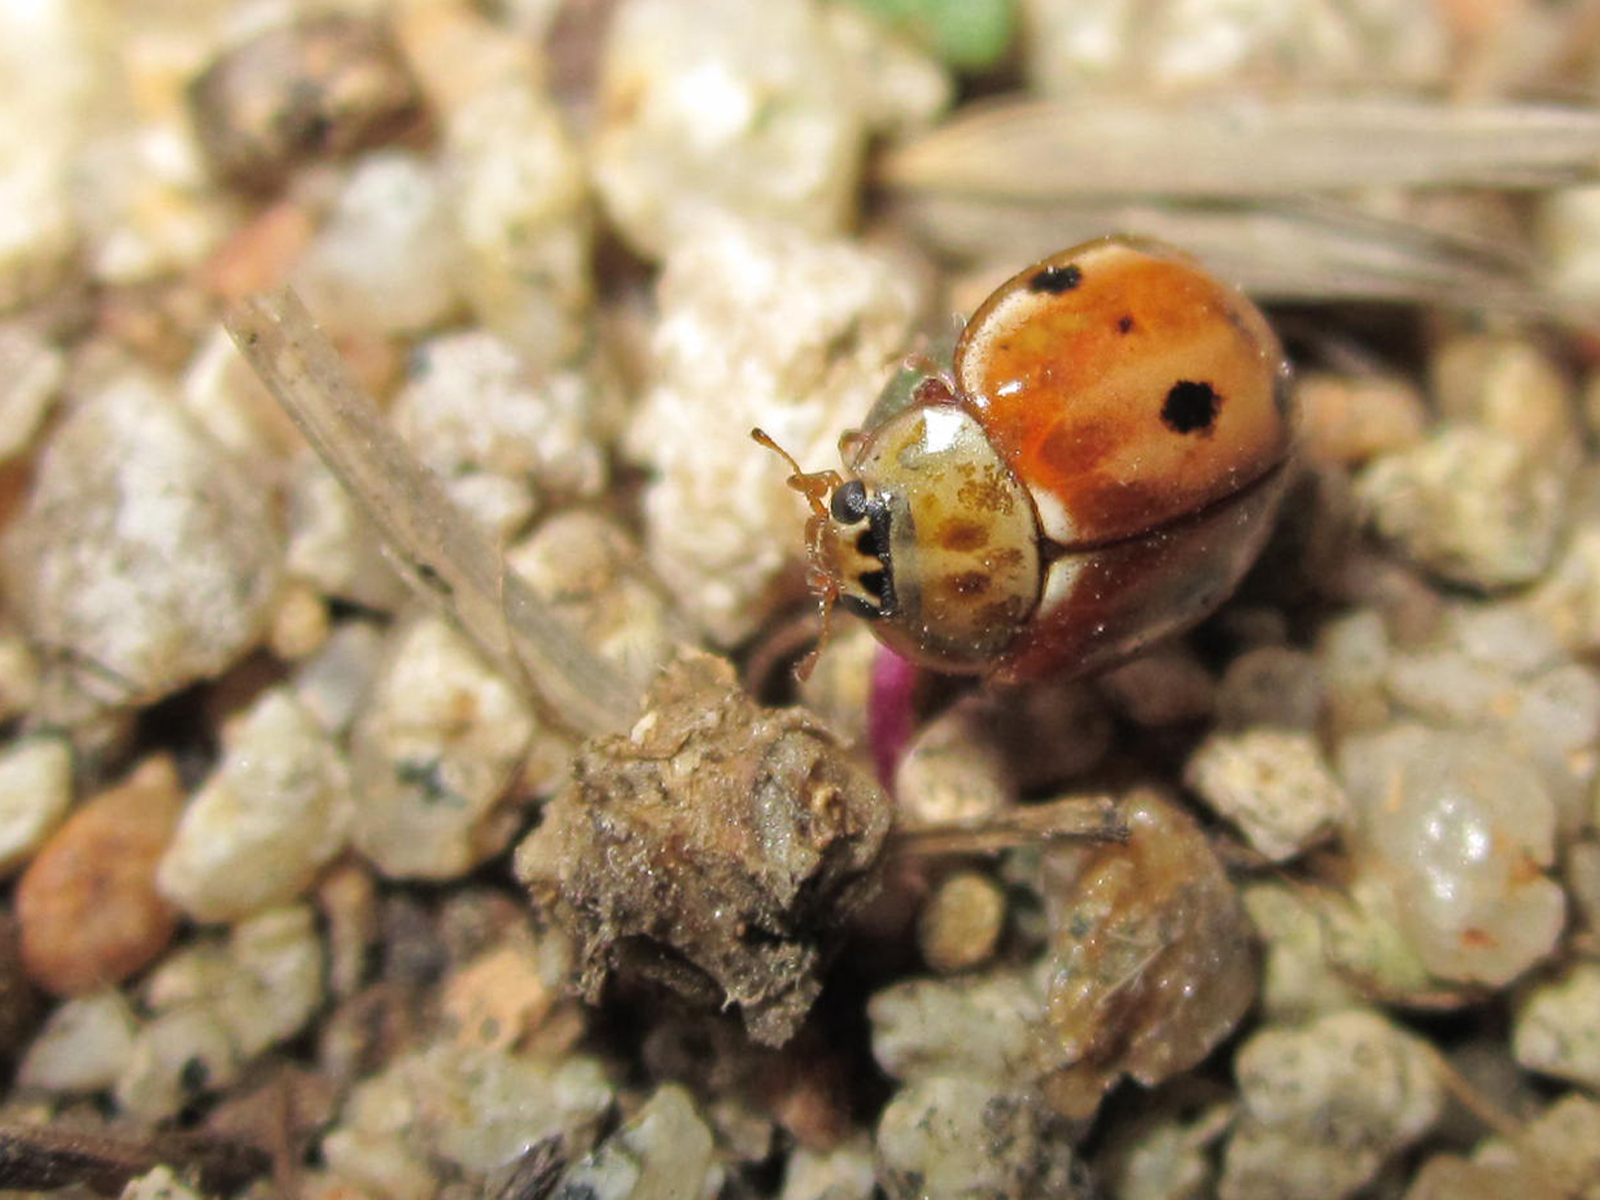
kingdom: Animalia
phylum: Arthropoda
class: Insecta
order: Coleoptera
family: Coccinellidae
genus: Harmonia
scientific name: Harmonia quadripunctata
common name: Cream-streaked ladybird
